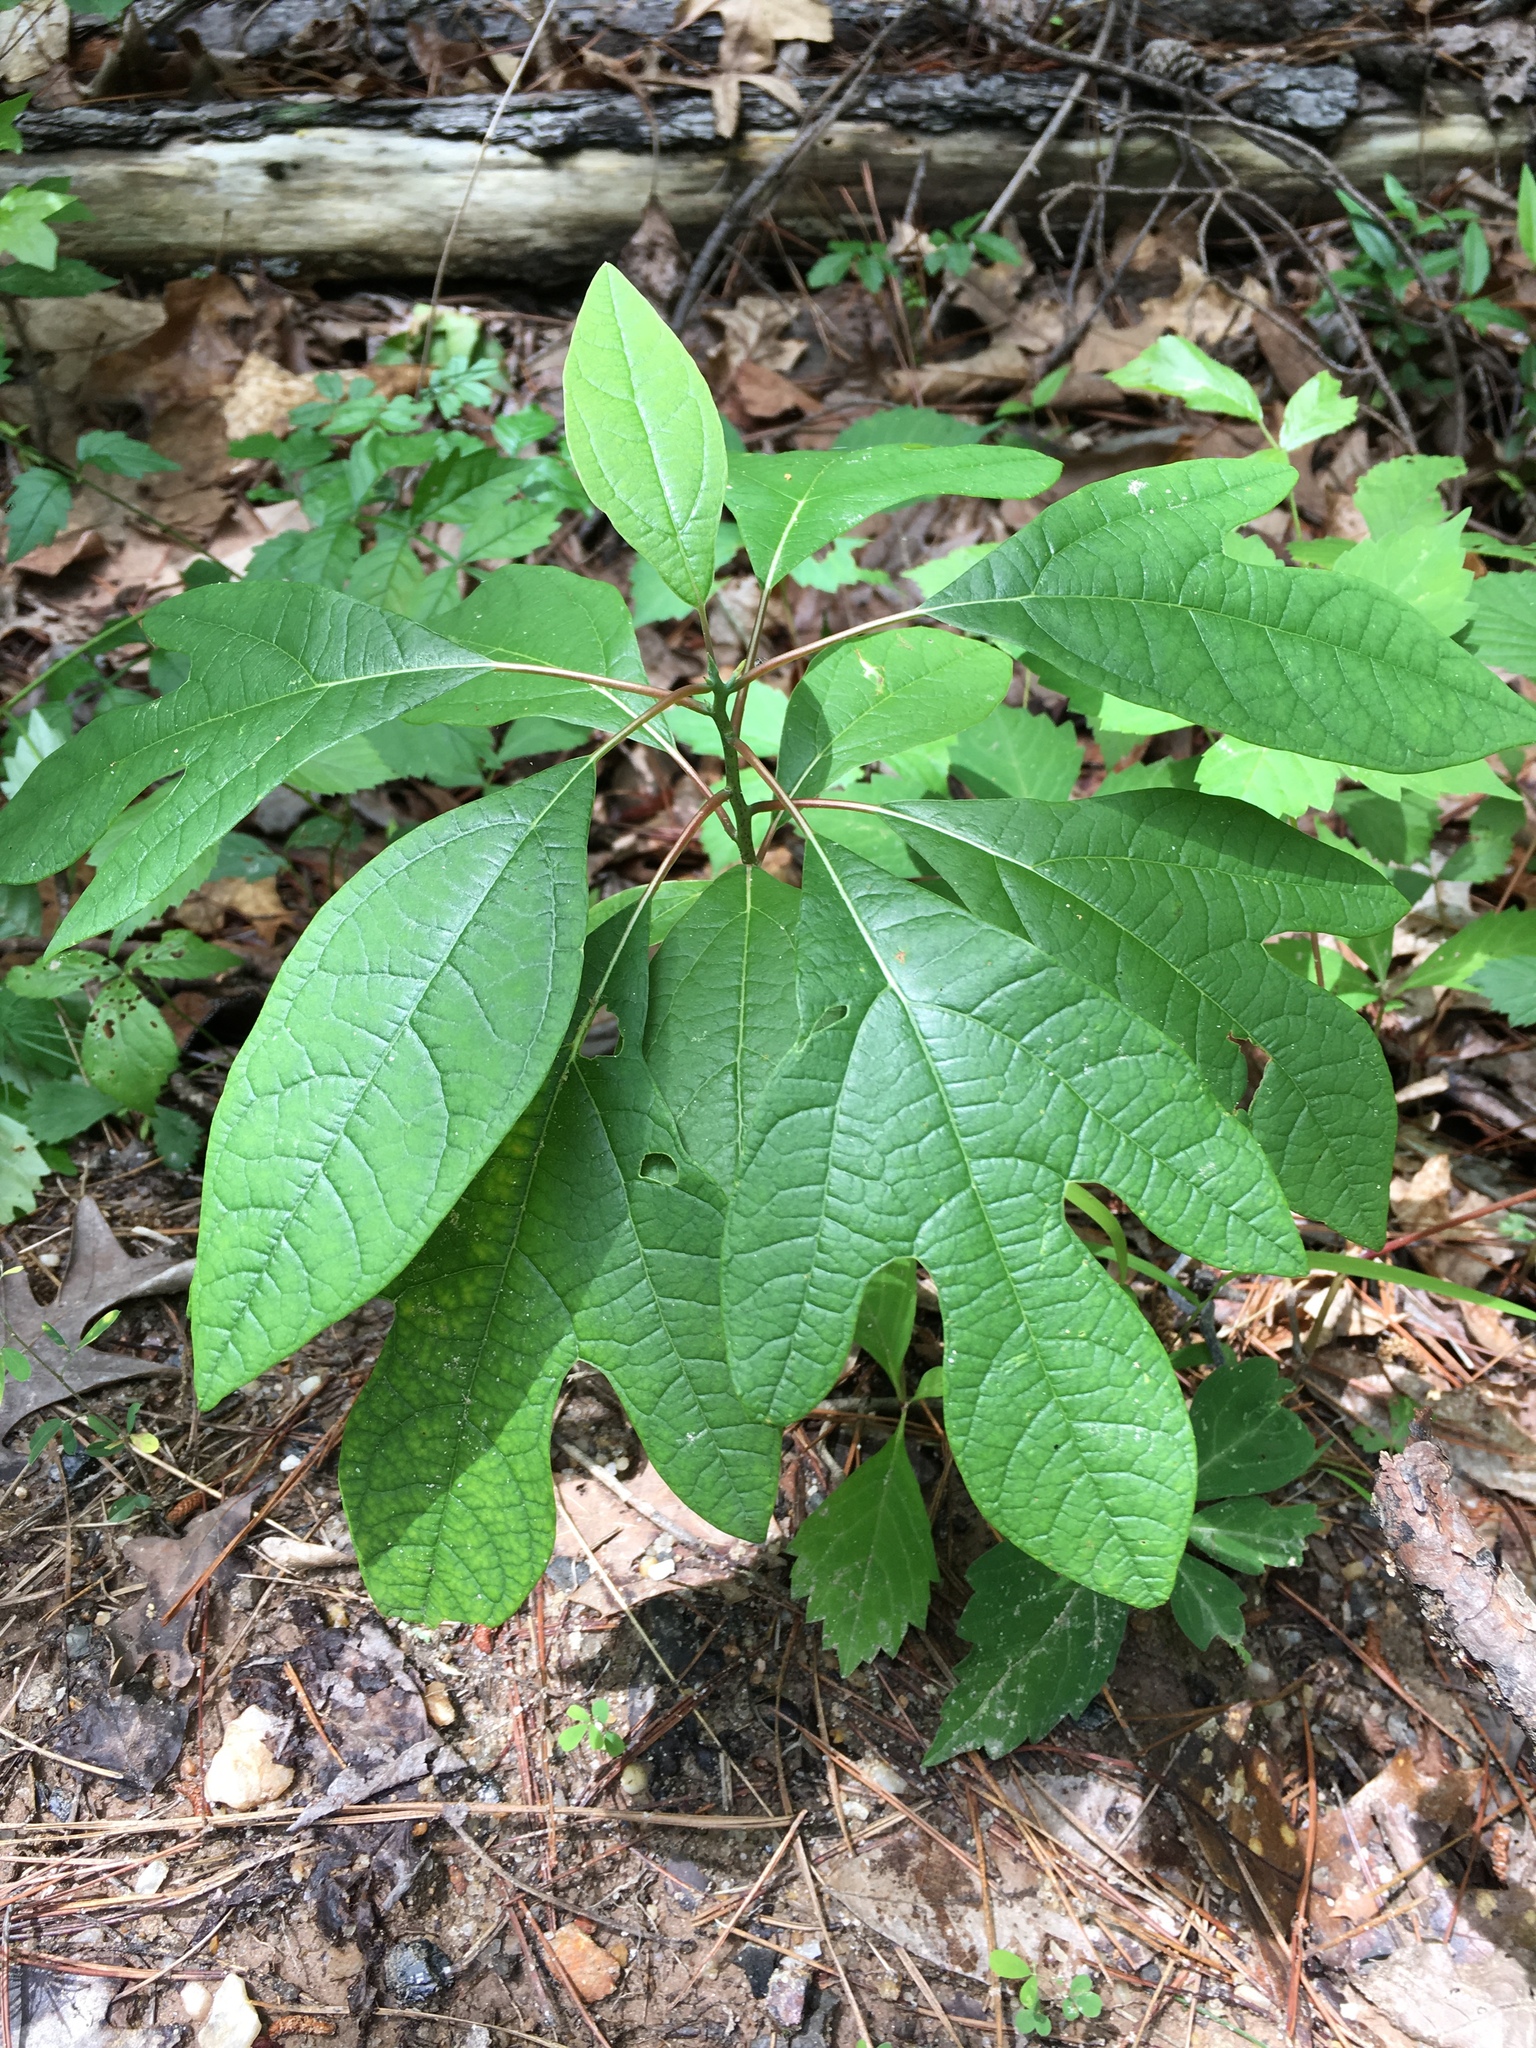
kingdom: Plantae
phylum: Tracheophyta
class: Magnoliopsida
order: Laurales
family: Lauraceae
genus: Sassafras
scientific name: Sassafras albidum
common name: Sassafras
